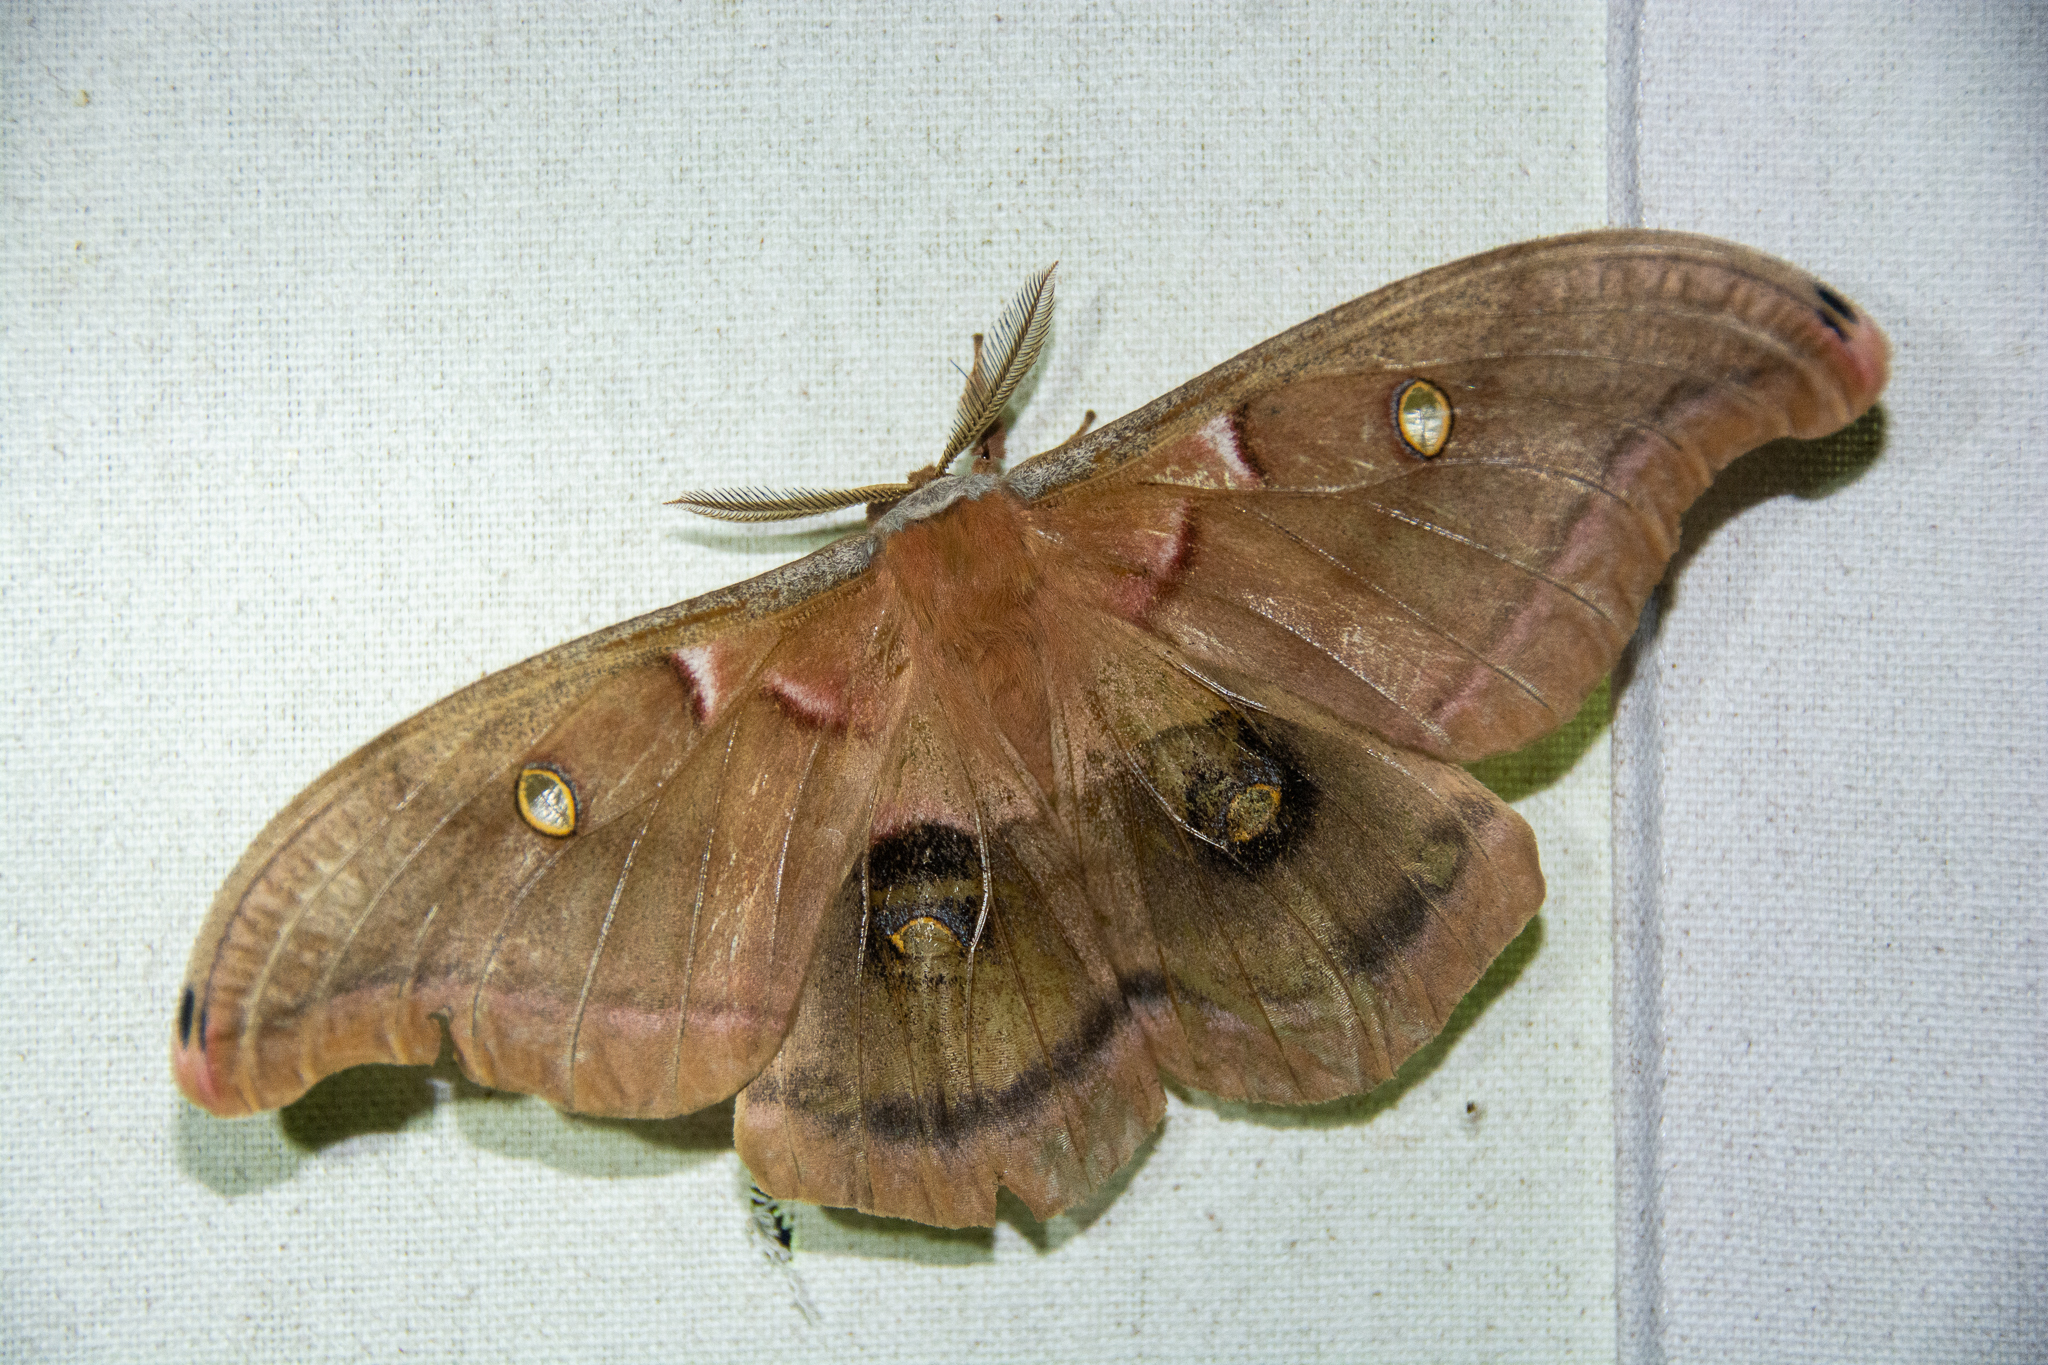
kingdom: Animalia
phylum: Arthropoda
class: Insecta
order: Lepidoptera
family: Saturniidae
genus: Antheraea
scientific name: Antheraea polyphemus
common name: Polyphemus moth
